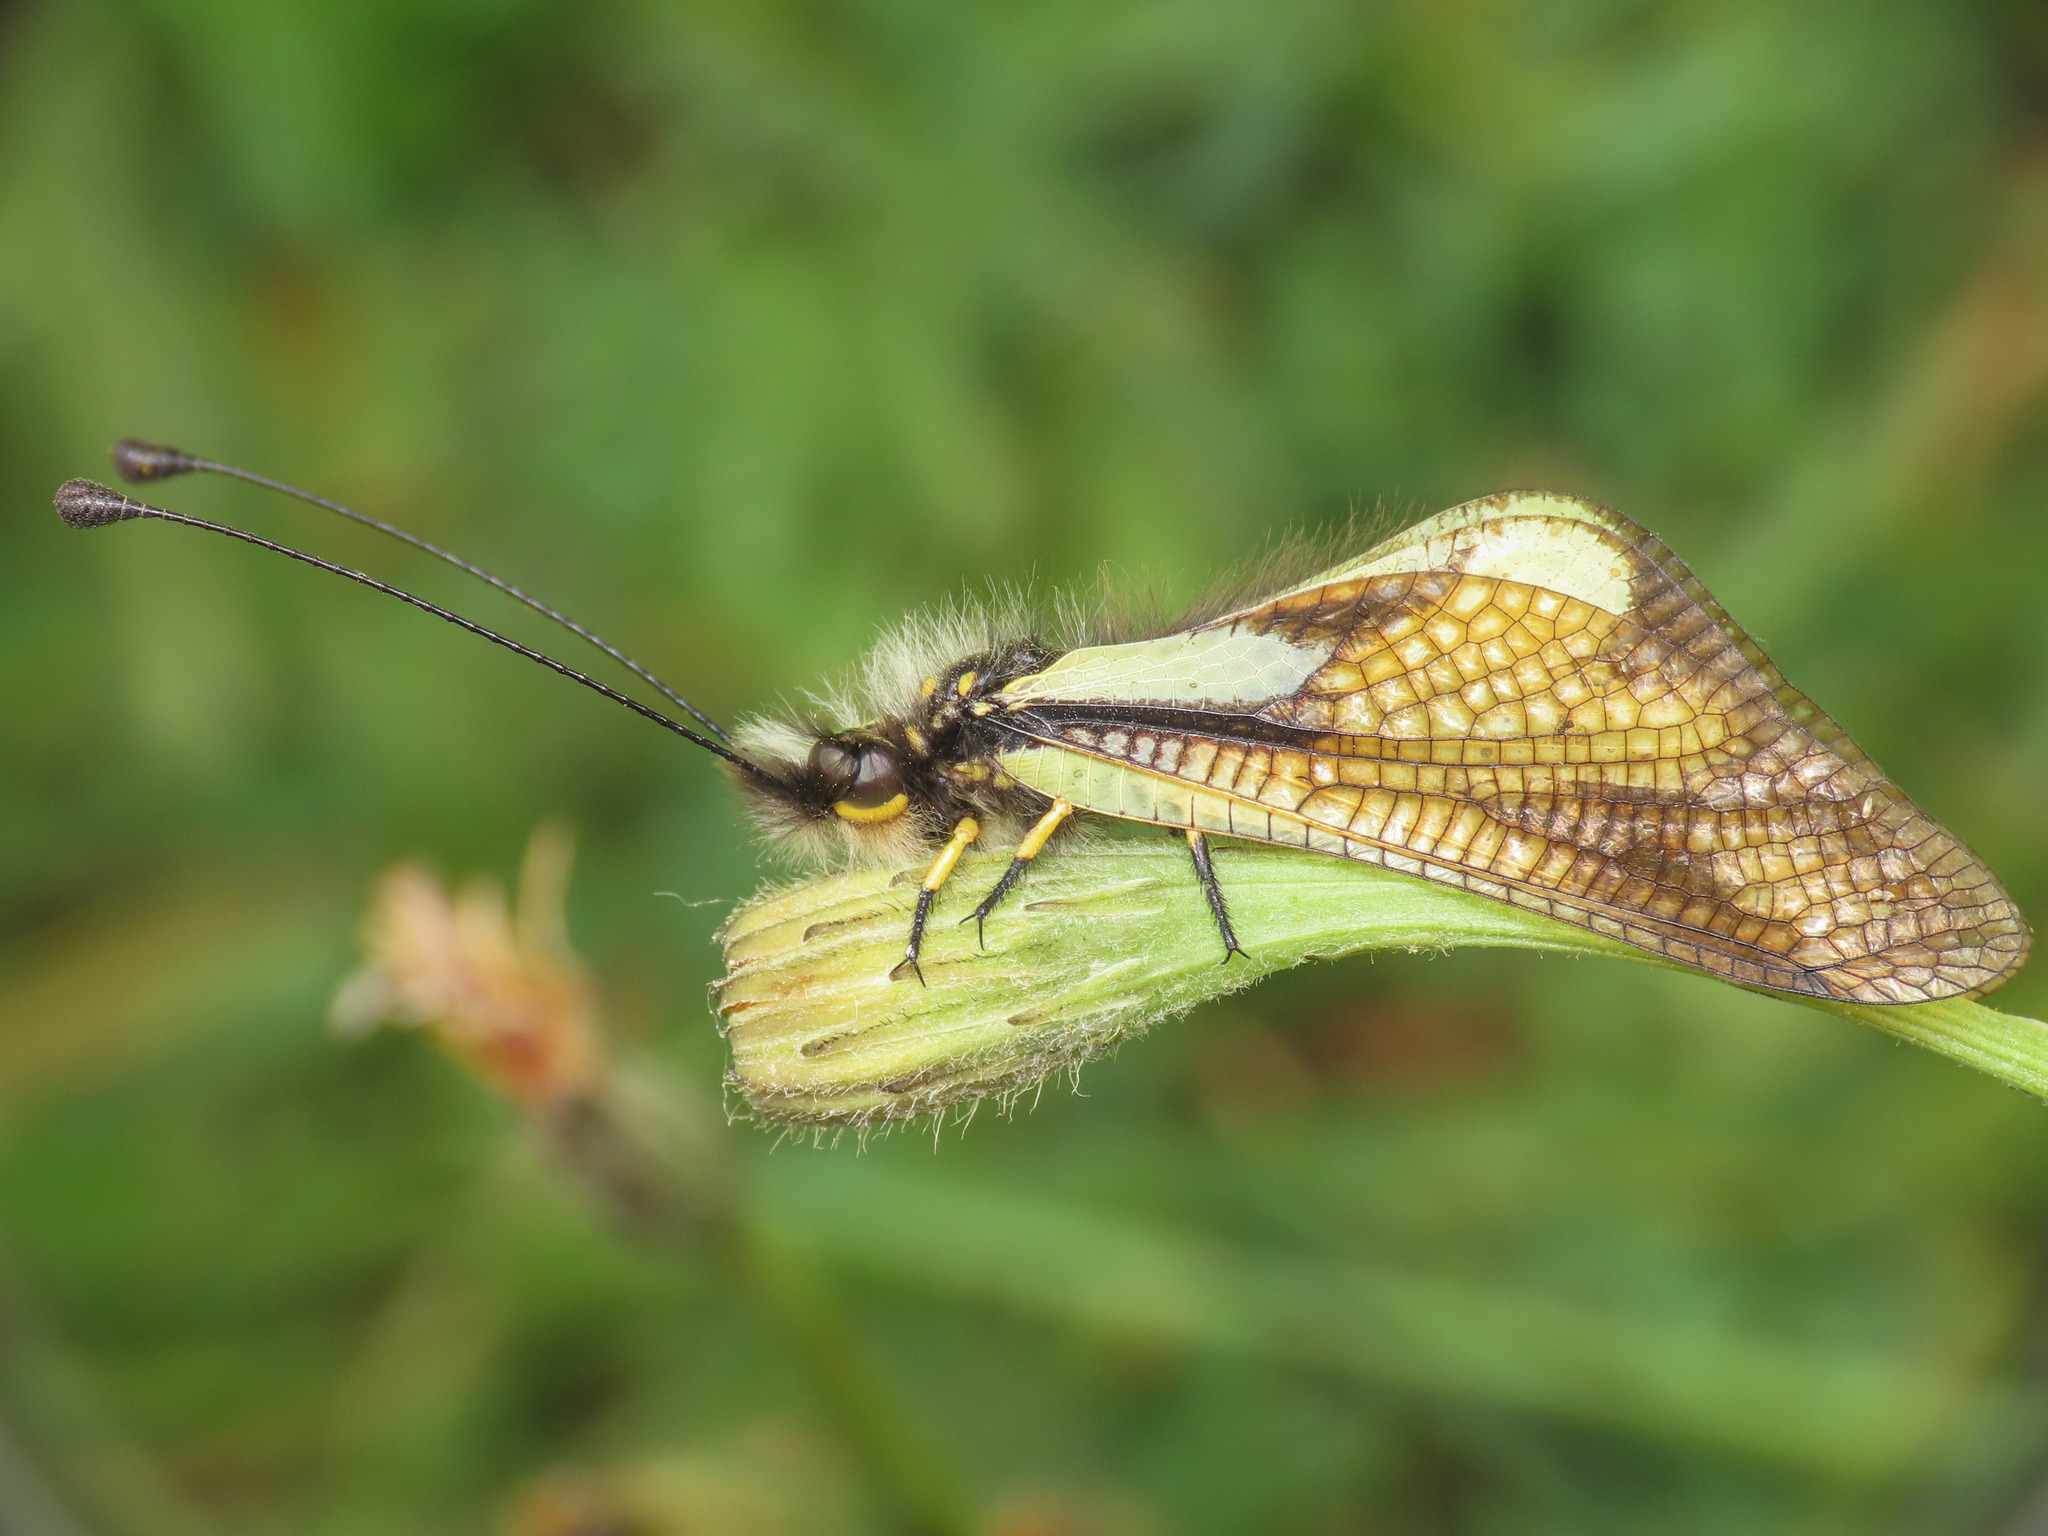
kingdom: Animalia
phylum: Arthropoda
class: Insecta
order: Neuroptera
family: Ascalaphidae
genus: Libelloides
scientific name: Libelloides coccajus
